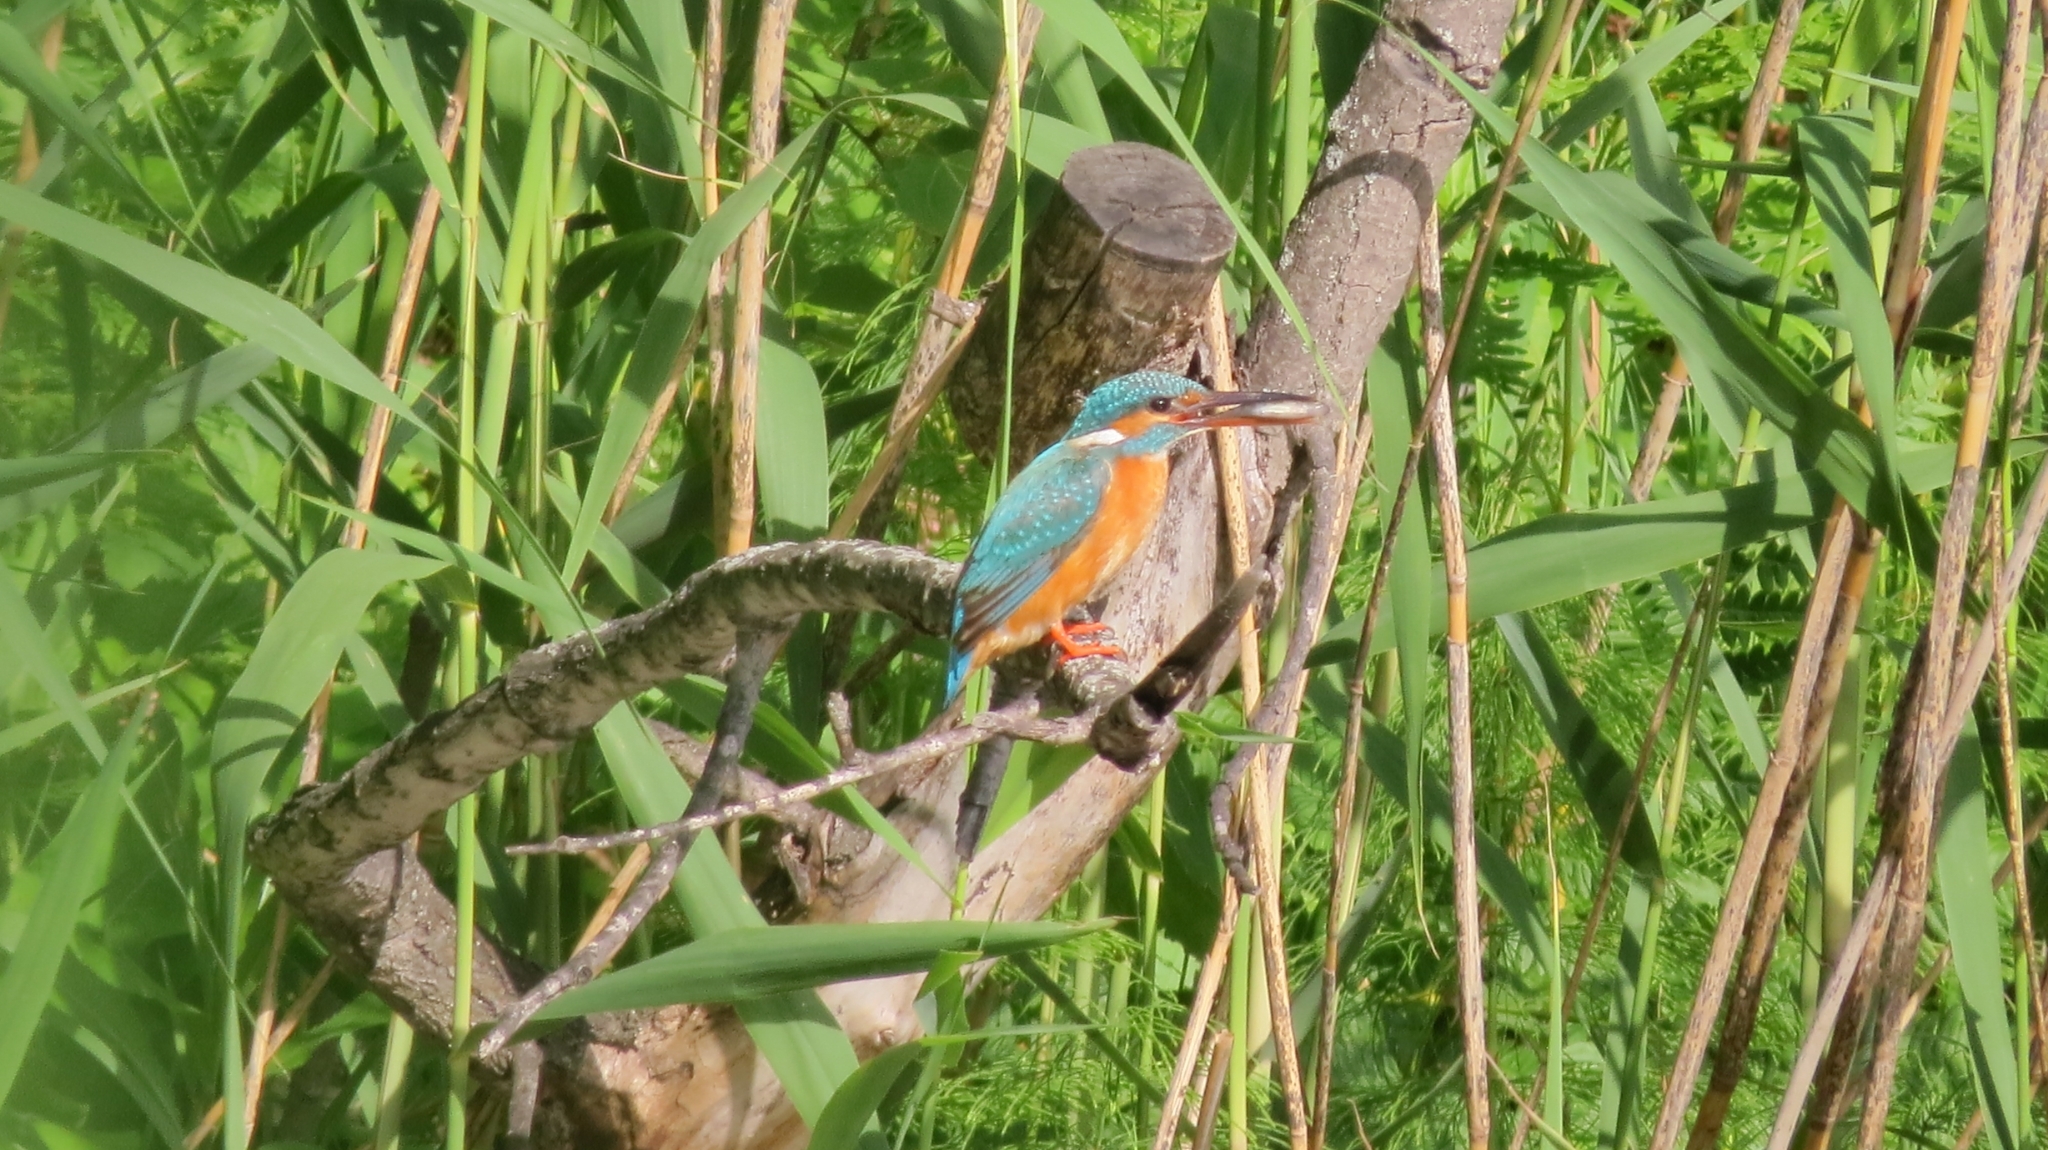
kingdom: Animalia
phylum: Chordata
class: Aves
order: Coraciiformes
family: Alcedinidae
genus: Alcedo
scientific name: Alcedo atthis
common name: Common kingfisher
